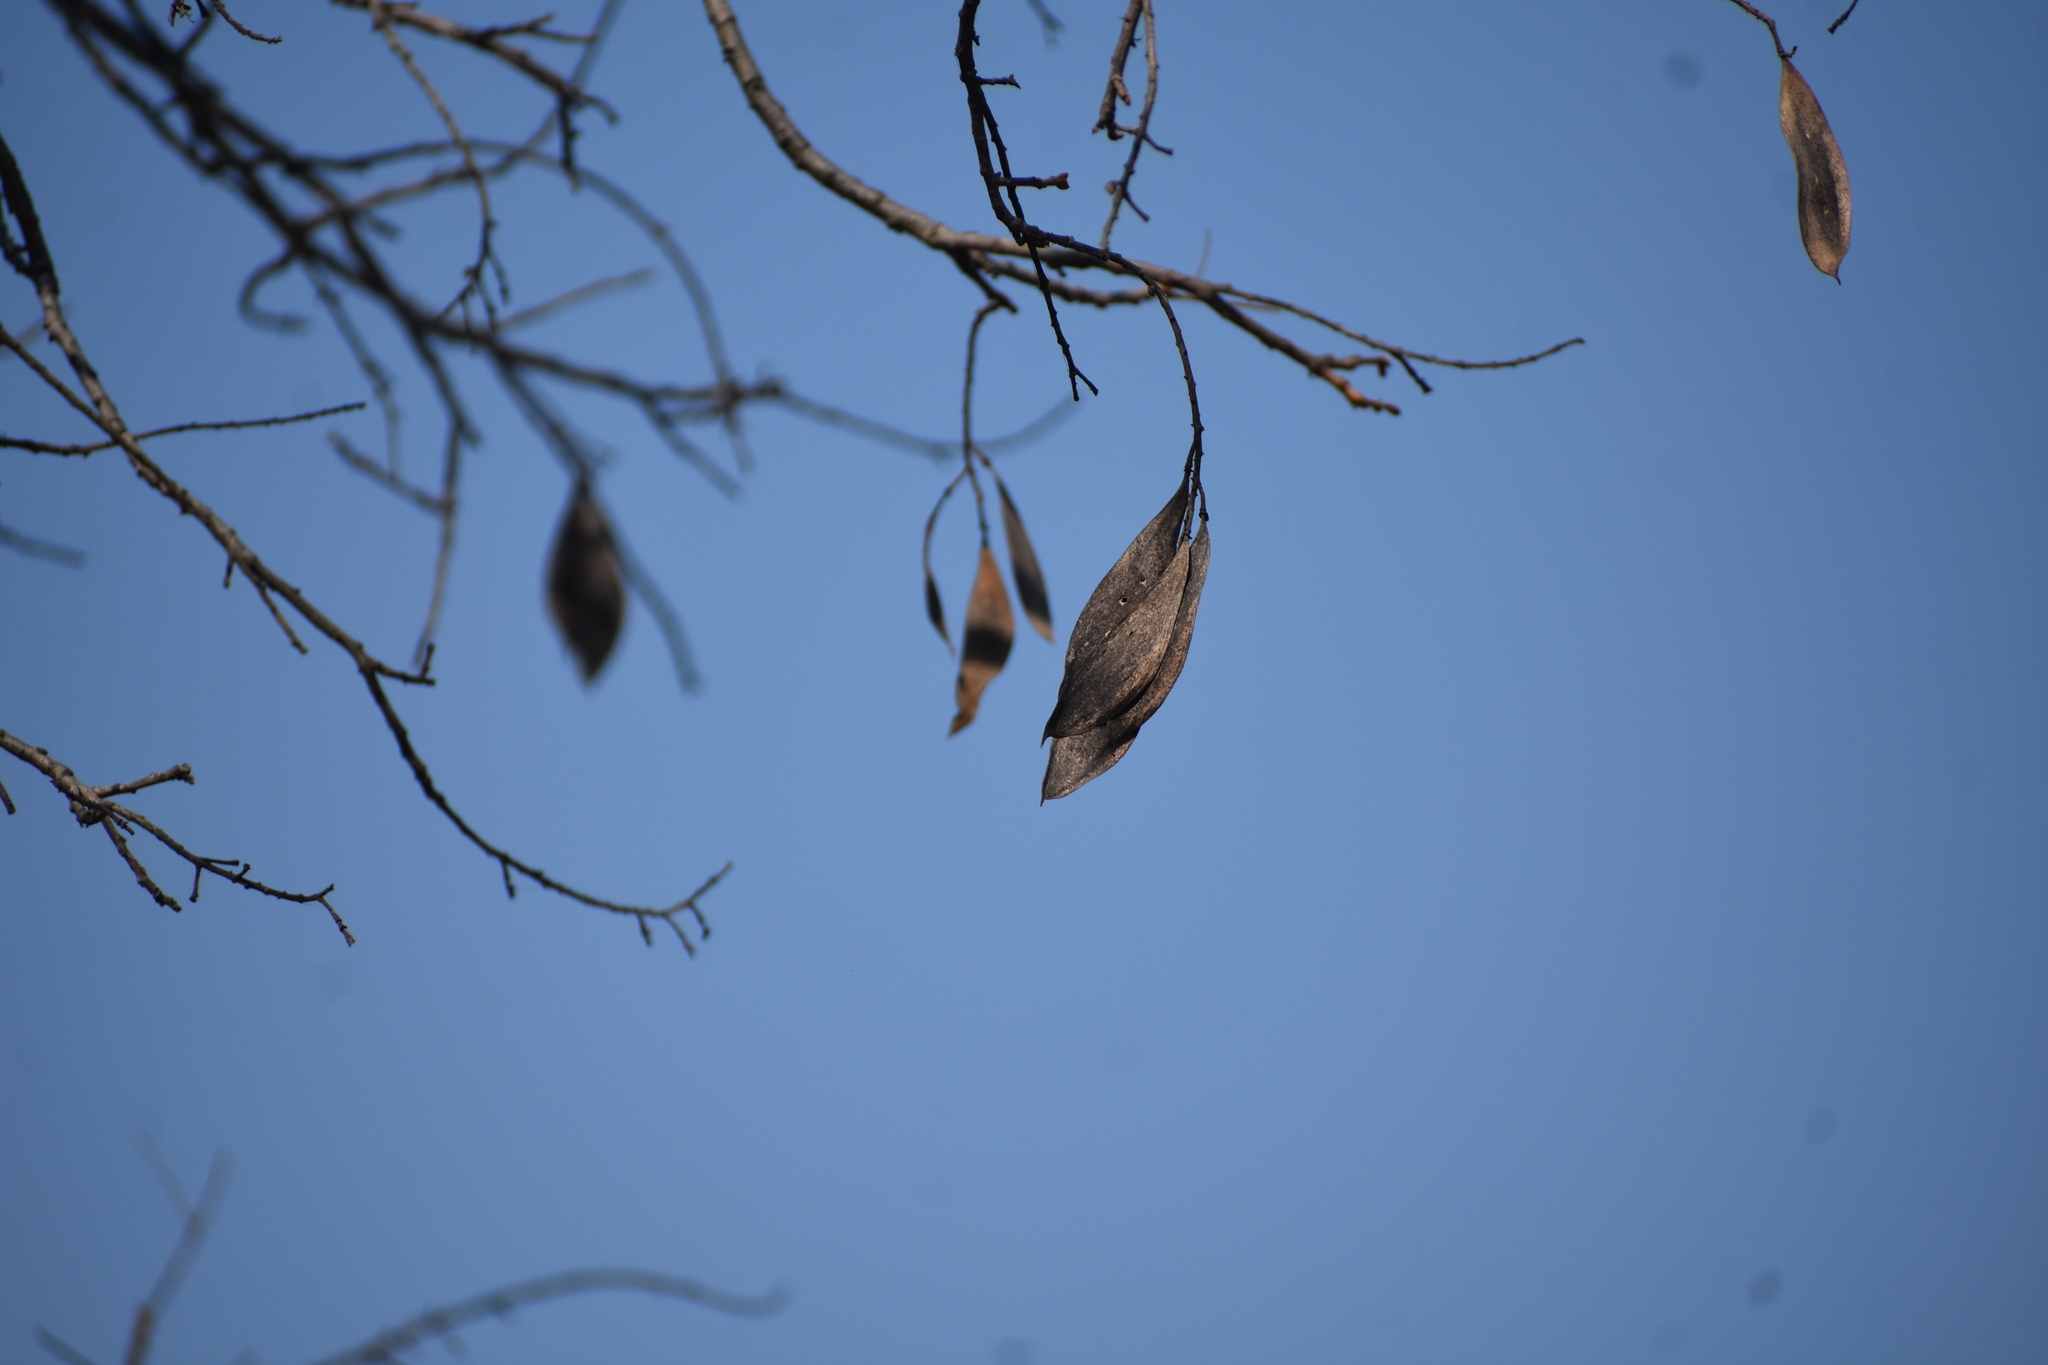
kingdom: Plantae
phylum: Tracheophyta
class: Magnoliopsida
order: Fabales
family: Fabaceae
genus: Peltophorum
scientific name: Peltophorum africanum
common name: African black wattle
